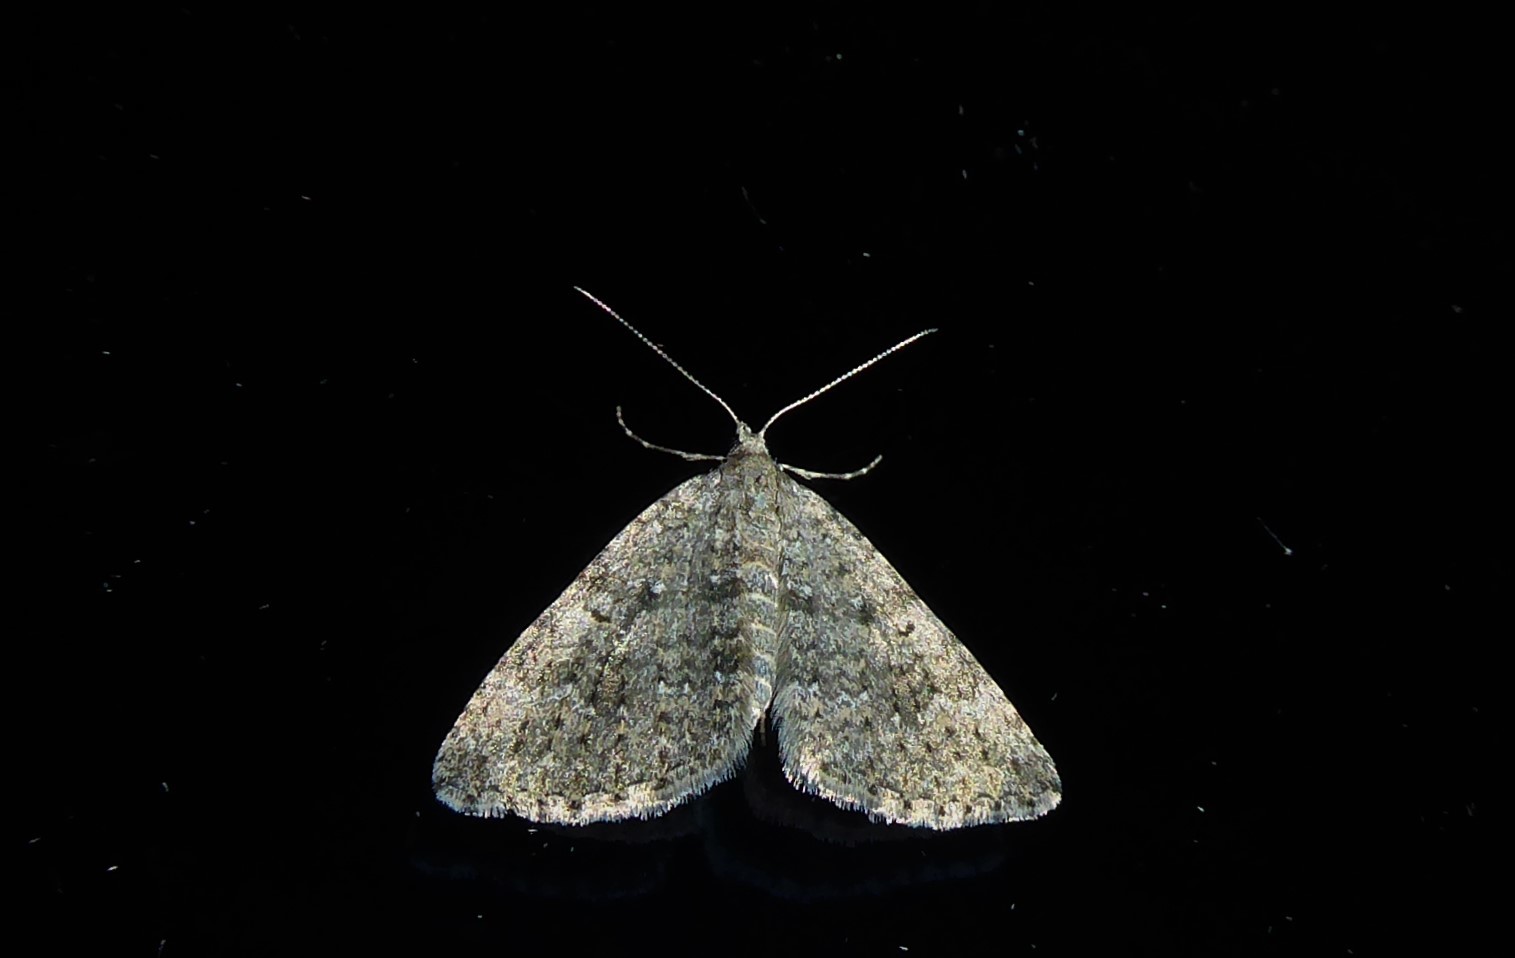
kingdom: Animalia
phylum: Arthropoda
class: Insecta
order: Lepidoptera
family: Geometridae
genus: Helastia
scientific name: Helastia corcularia
